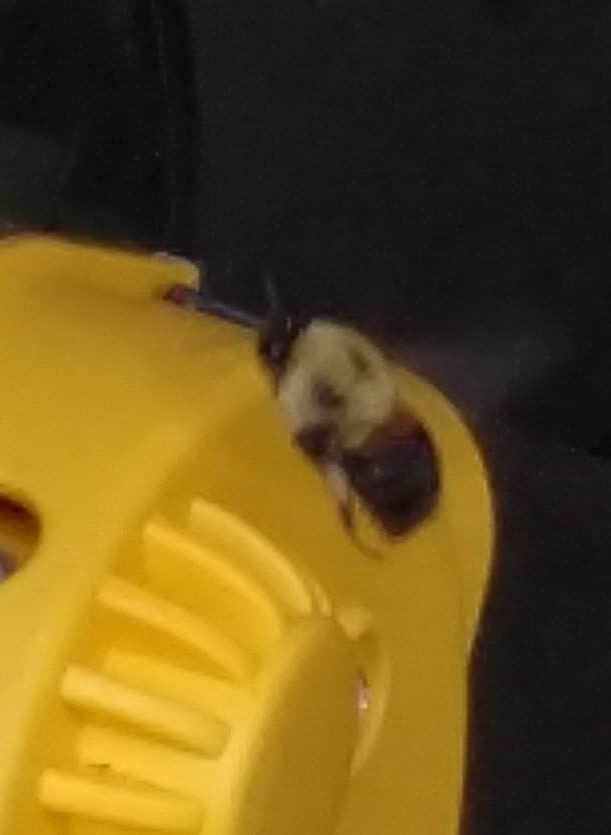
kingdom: Animalia
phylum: Arthropoda
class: Insecta
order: Hymenoptera
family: Apidae
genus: Bombus
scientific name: Bombus griseocollis
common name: Brown-belted bumble bee
